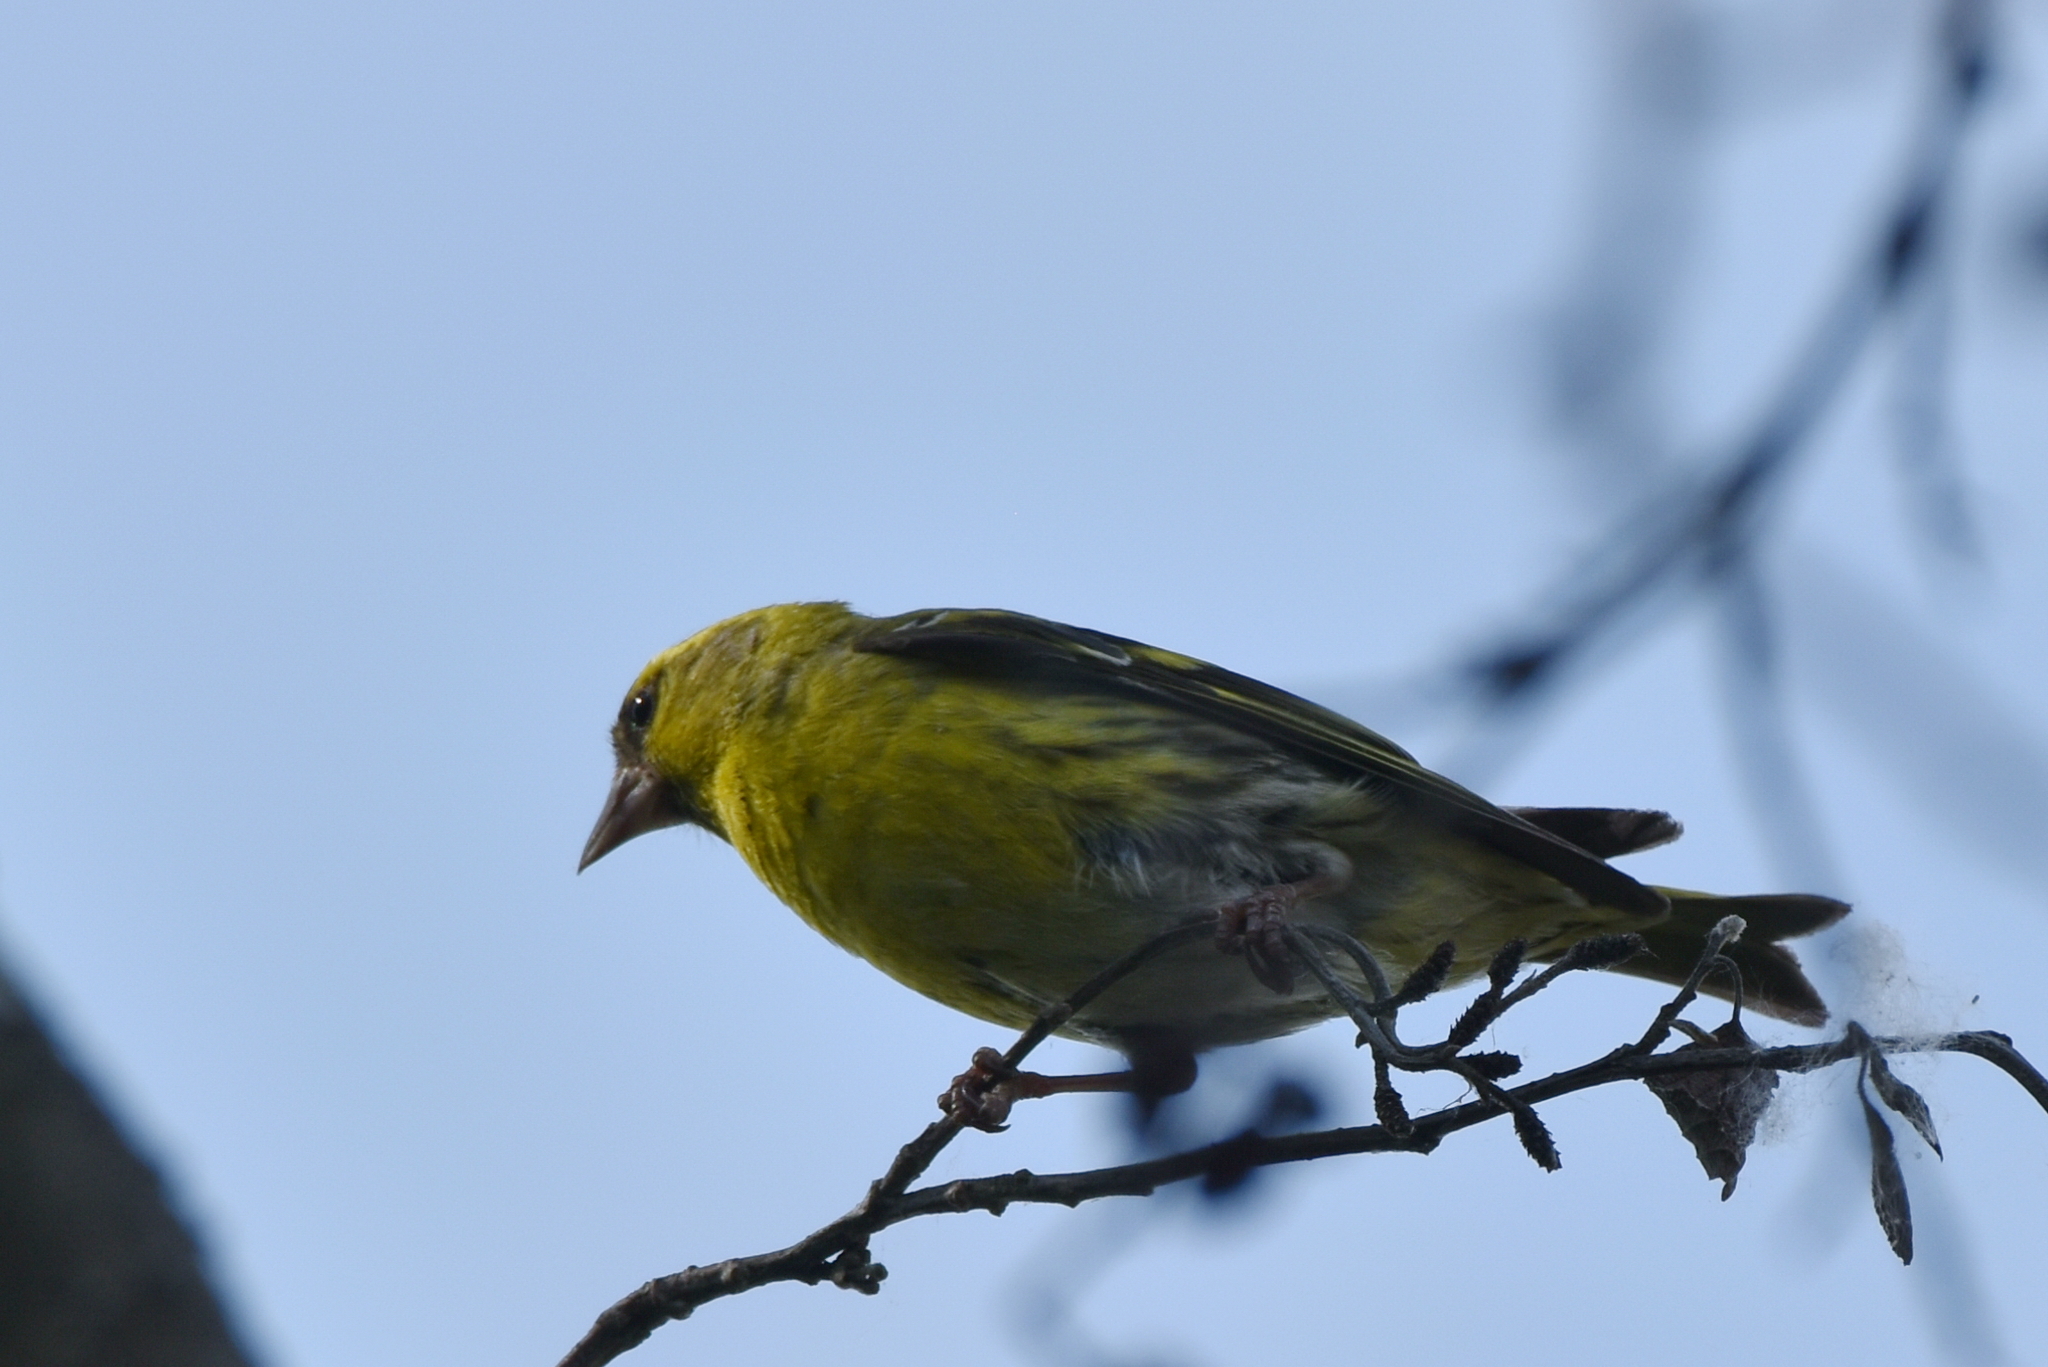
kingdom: Animalia
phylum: Chordata
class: Aves
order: Passeriformes
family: Fringillidae
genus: Spinus
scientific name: Spinus spinus
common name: Eurasian siskin
